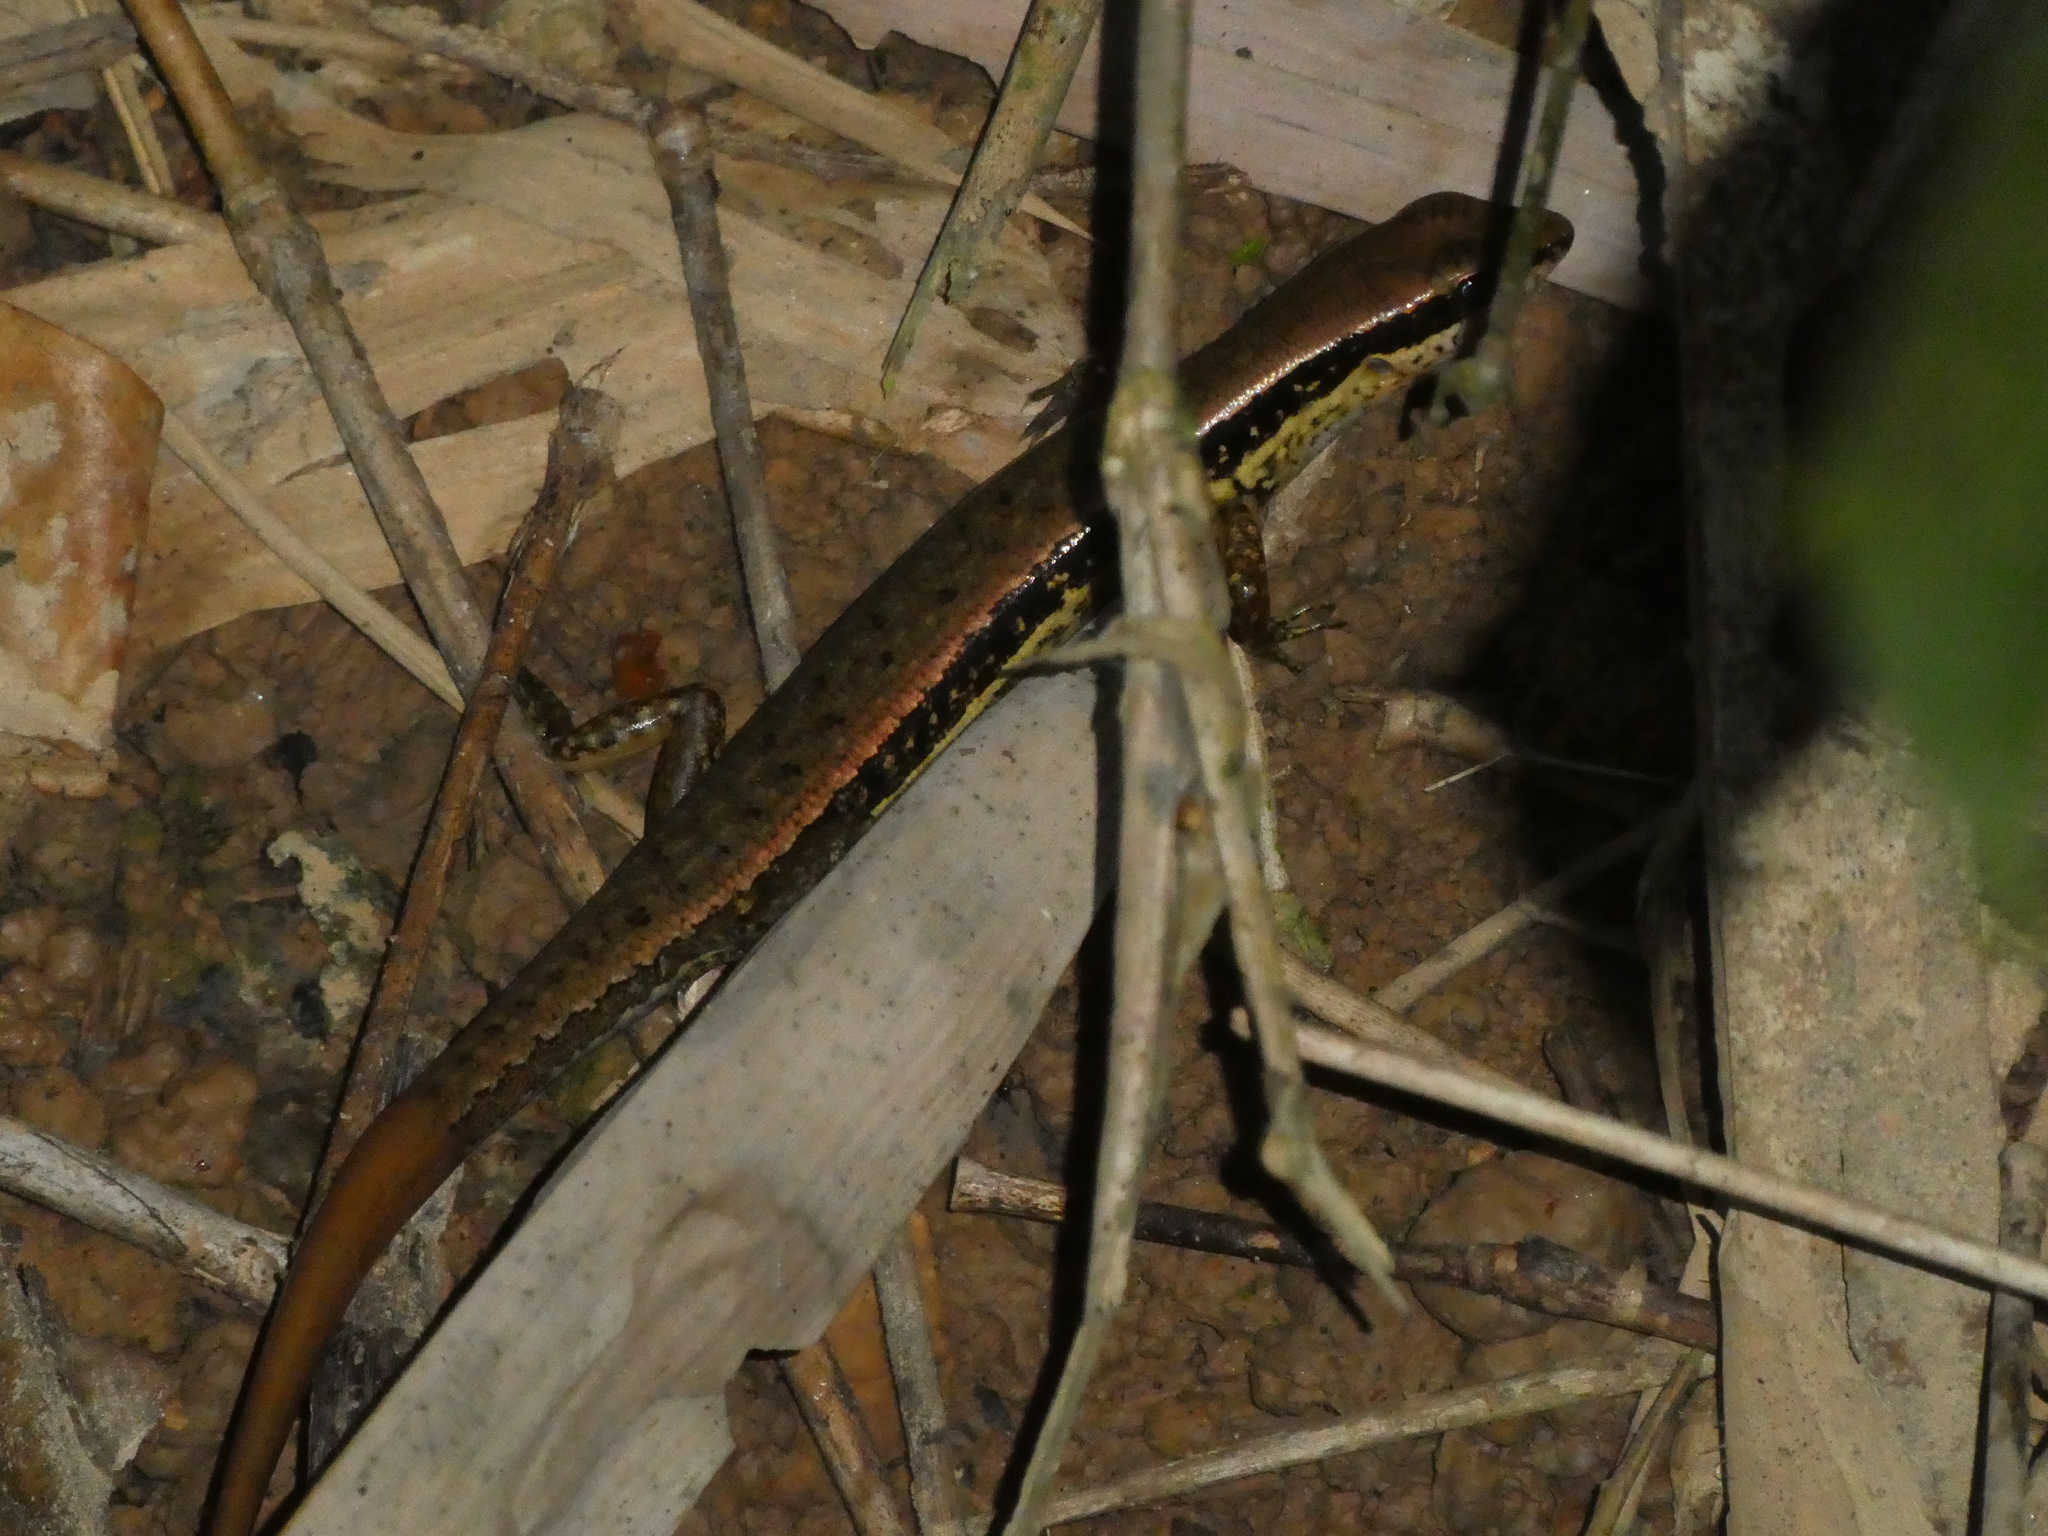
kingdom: Animalia
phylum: Chordata
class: Squamata
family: Scincidae
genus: Sphenomorphus
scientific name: Sphenomorphus maculatus
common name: Maculated forest skink
